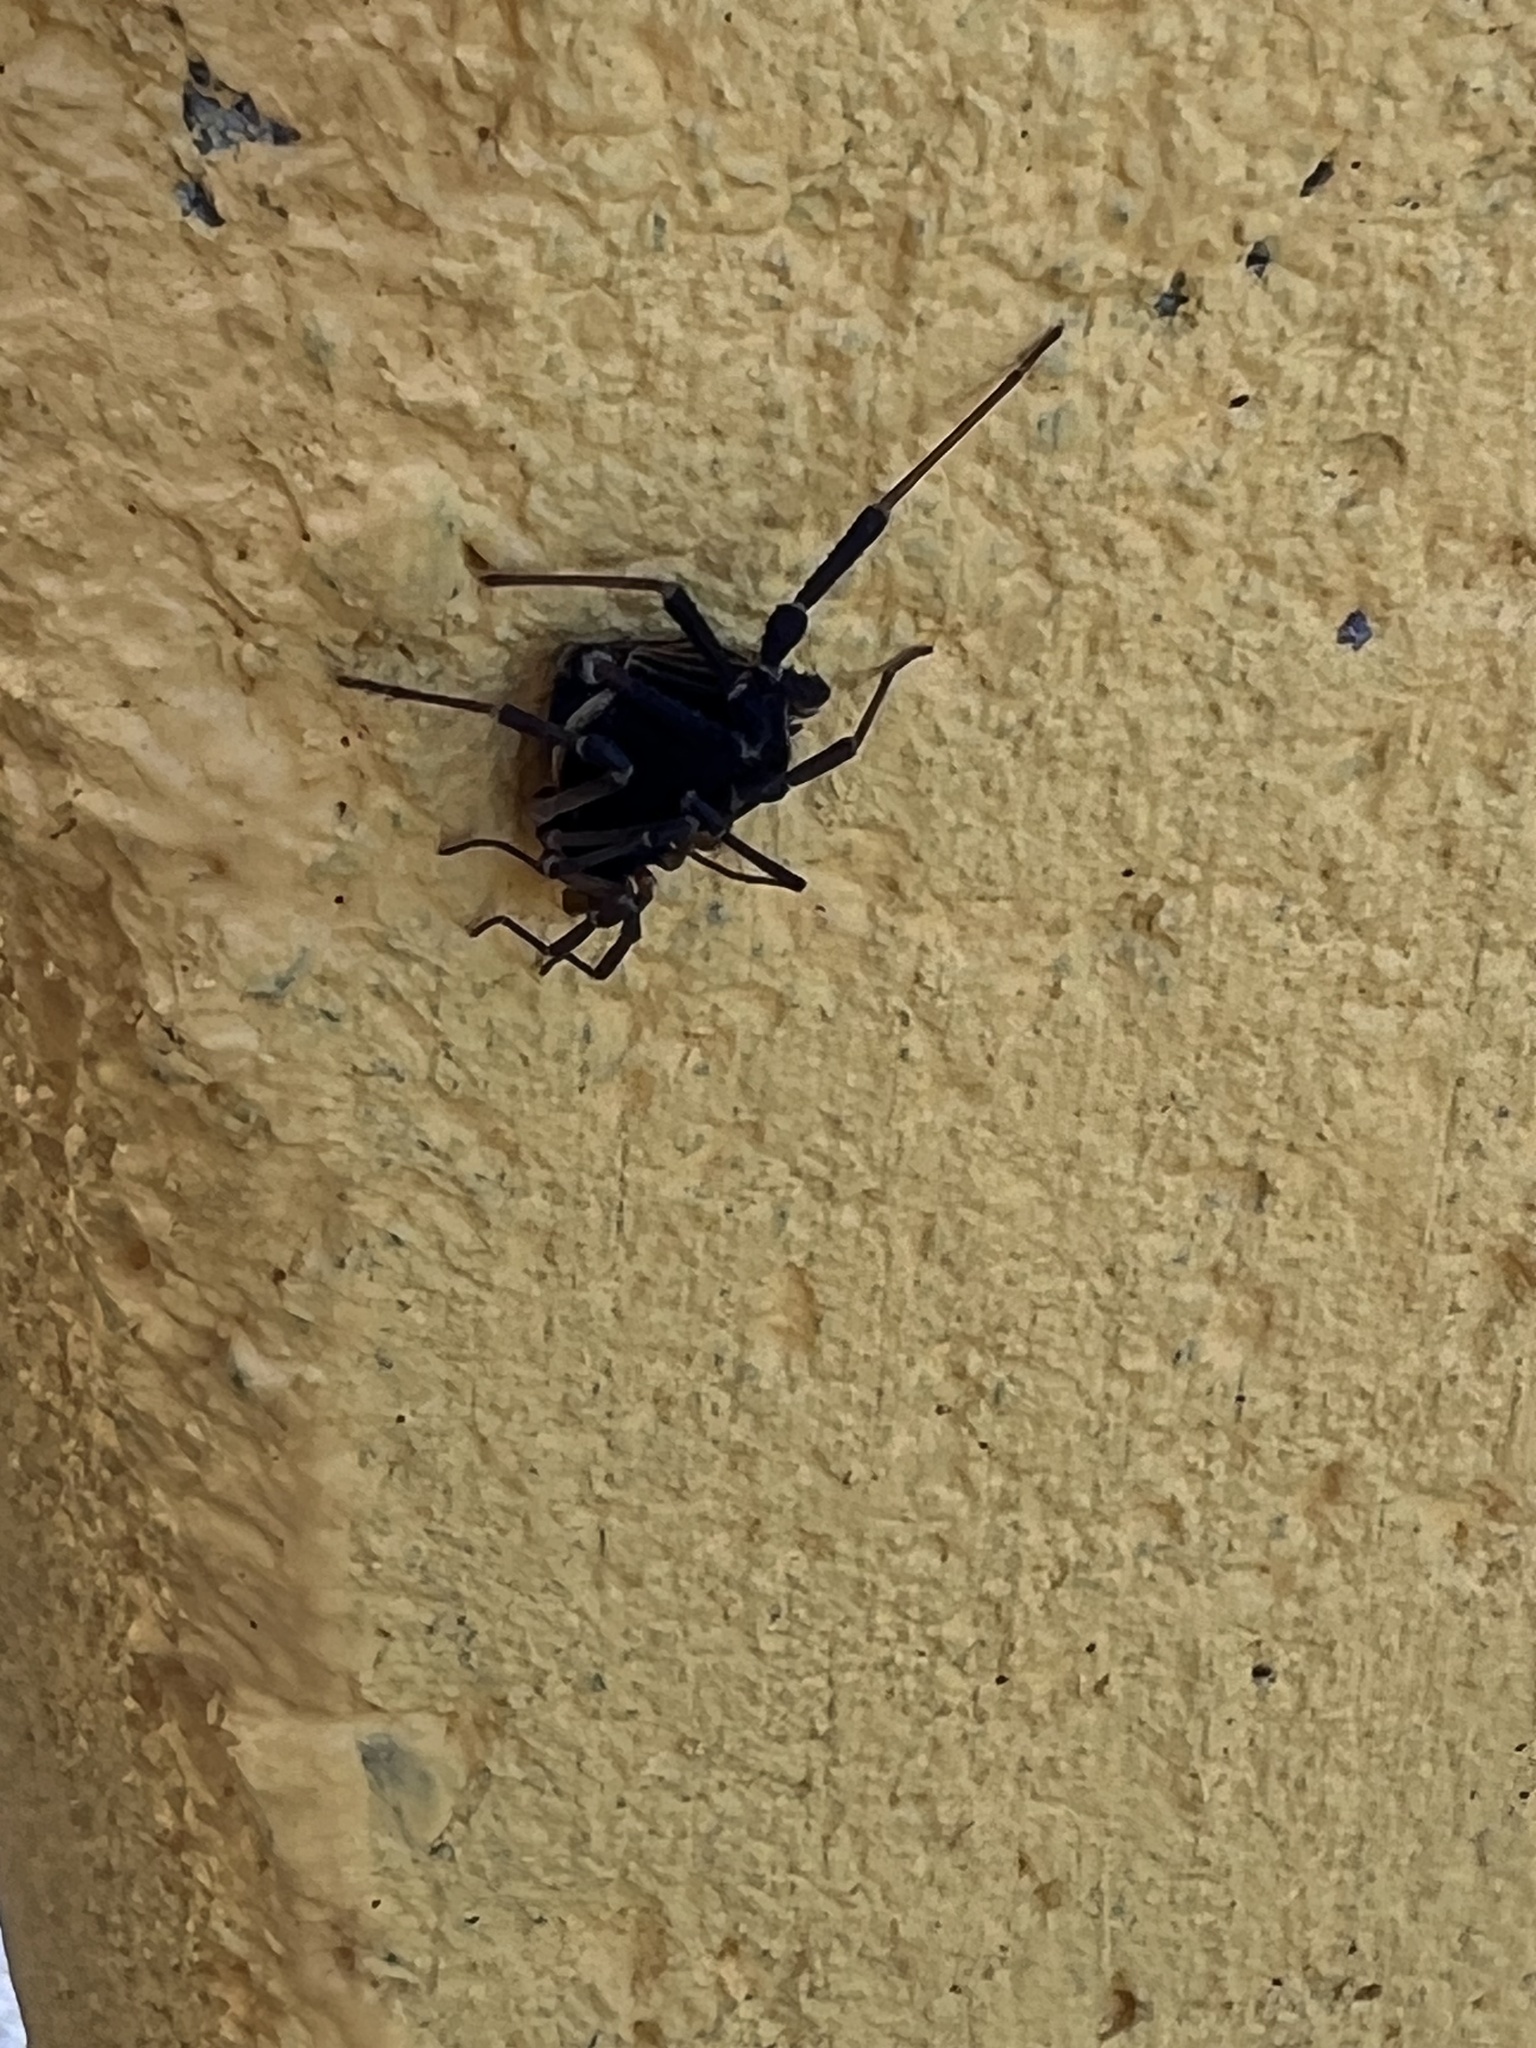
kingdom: Animalia
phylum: Arthropoda
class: Arachnida
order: Opiliones
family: Gonyleptidae
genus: Acanthopachylus
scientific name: Acanthopachylus robustus
